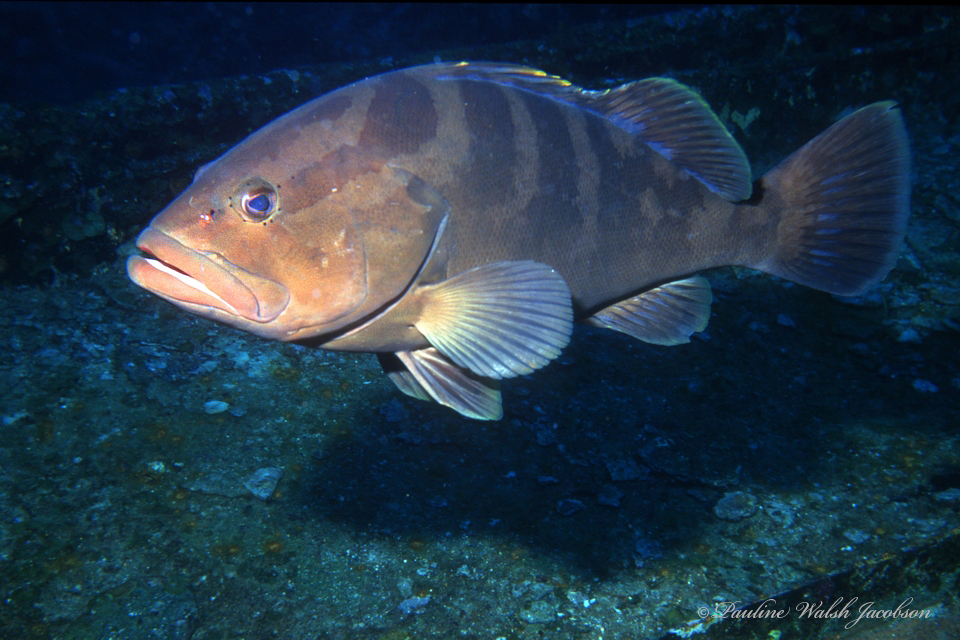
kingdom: Animalia
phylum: Chordata
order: Perciformes
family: Serranidae
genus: Epinephelus
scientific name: Epinephelus striatus
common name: Nassau grouper
